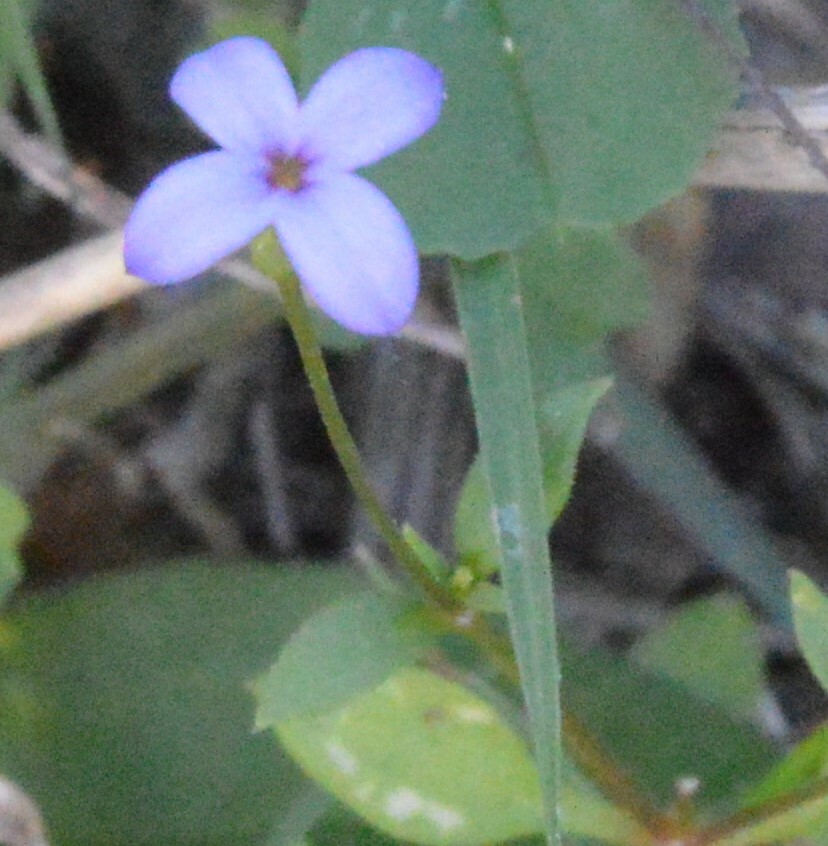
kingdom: Plantae
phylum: Tracheophyta
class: Magnoliopsida
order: Gentianales
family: Rubiaceae
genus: Houstonia
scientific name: Houstonia pusilla
